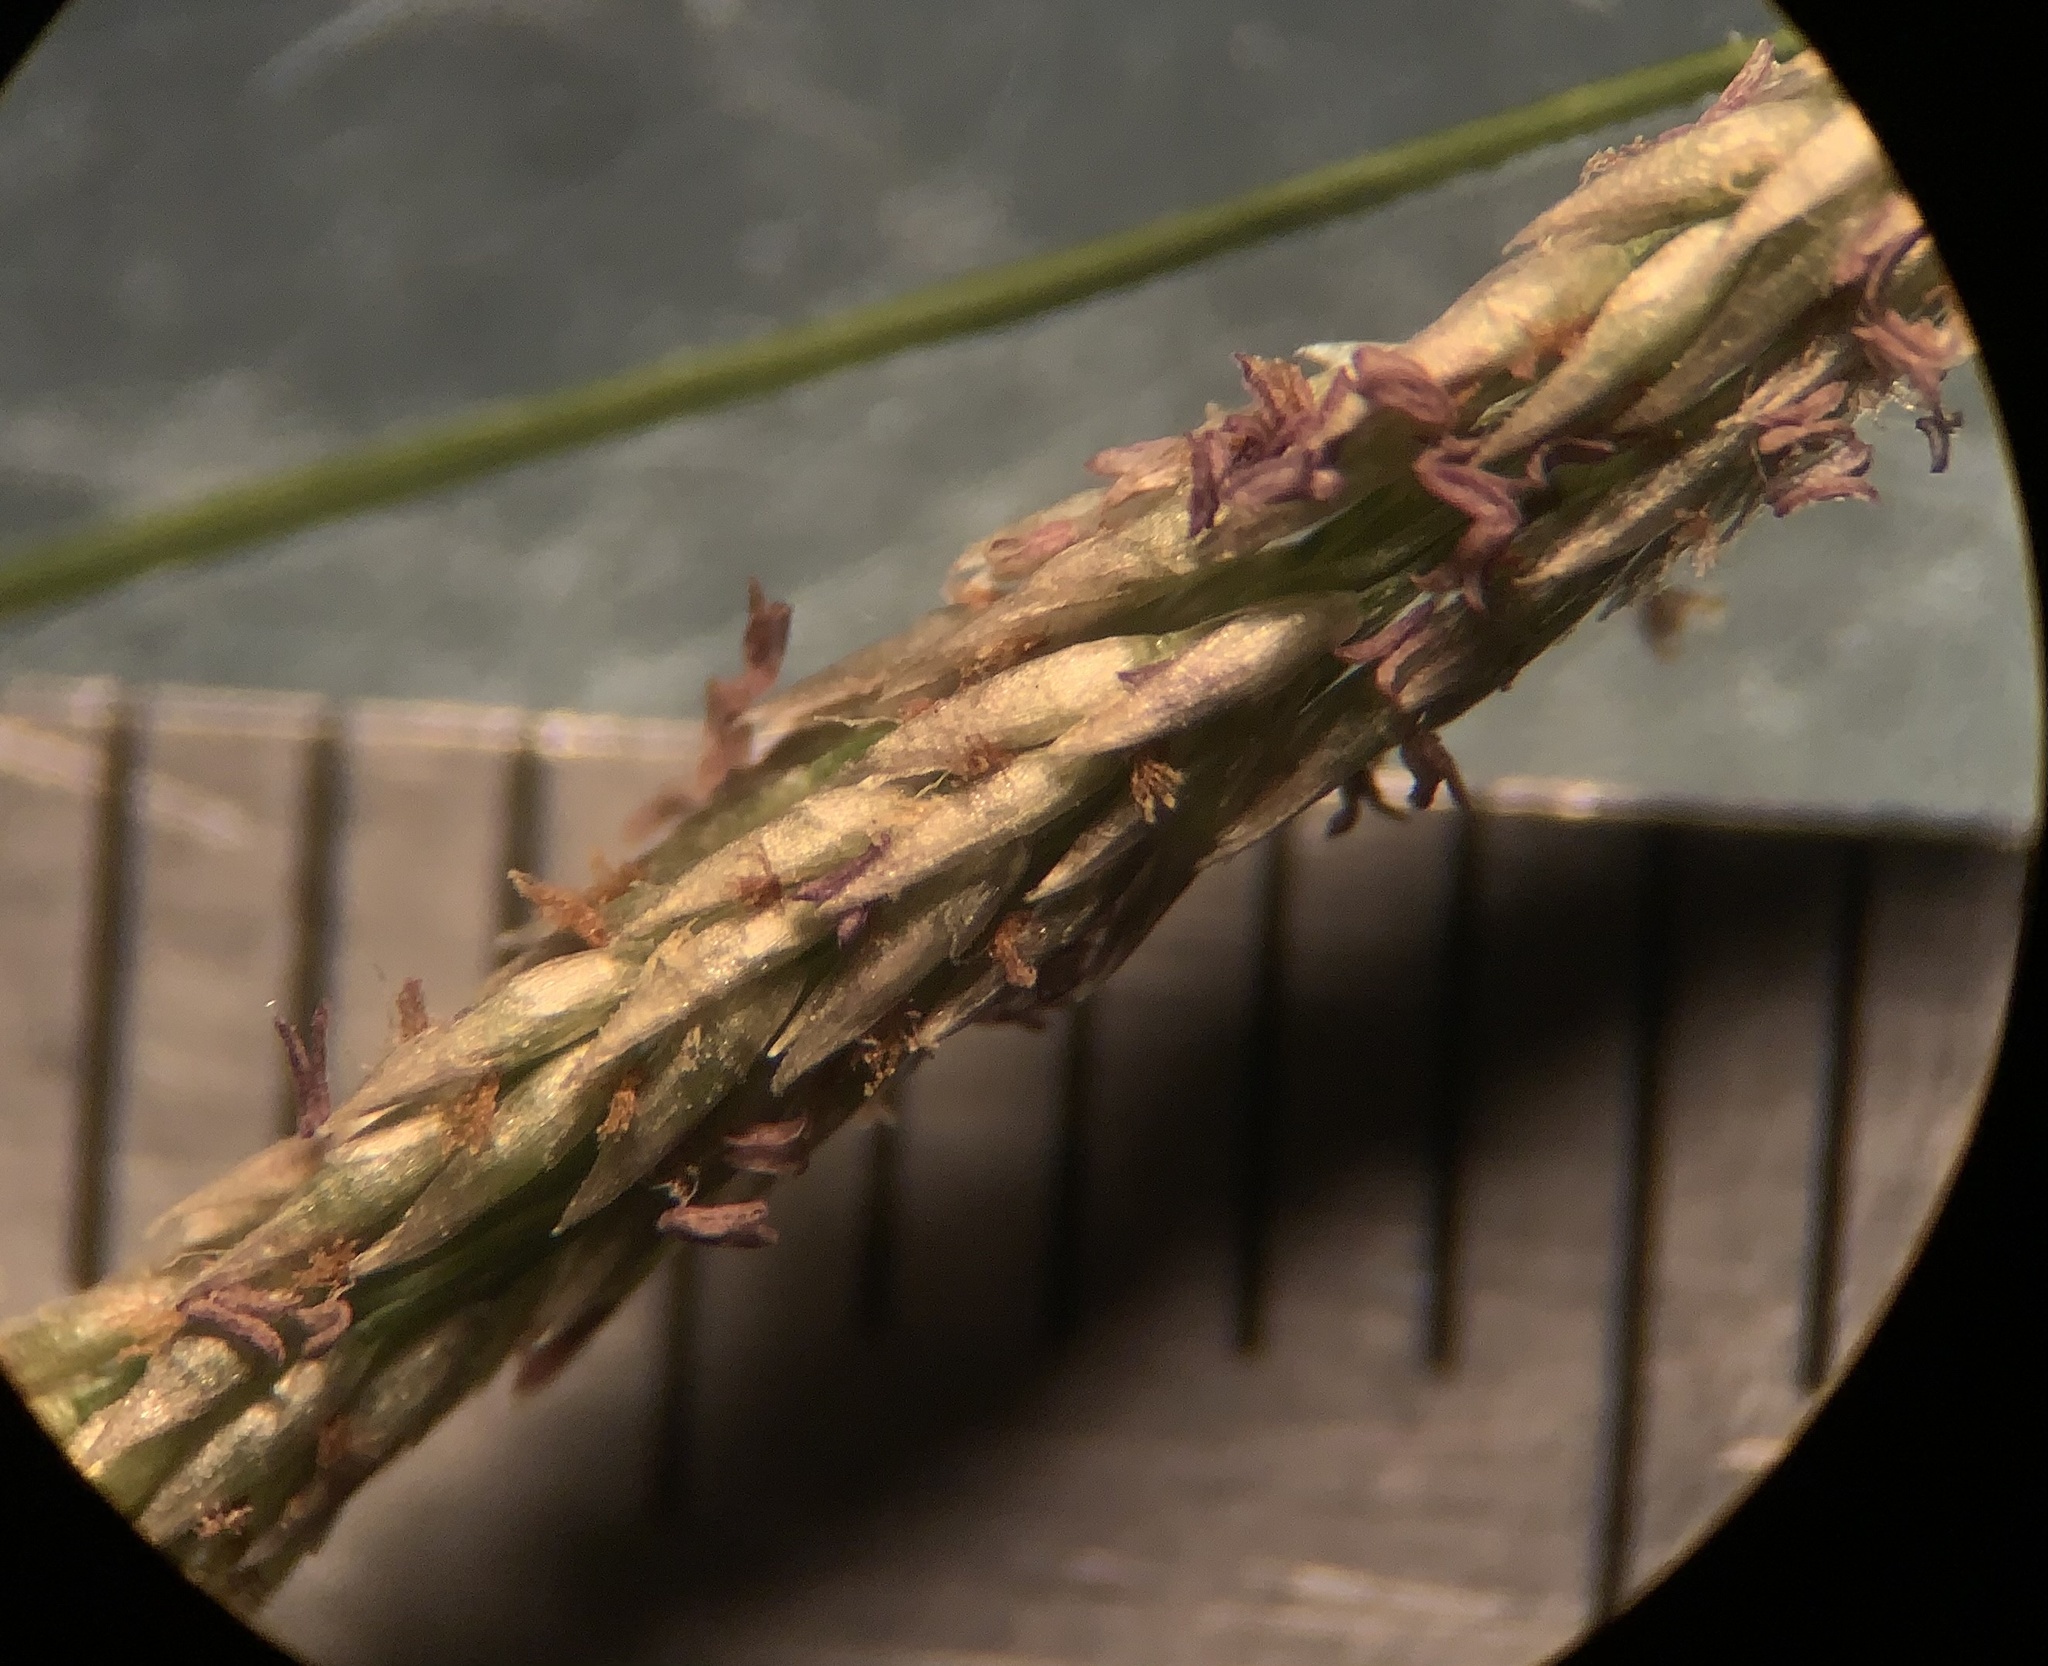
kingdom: Plantae
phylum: Tracheophyta
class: Liliopsida
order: Poales
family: Poaceae
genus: Sporobolus
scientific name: Sporobolus indicus
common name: Smut grass
